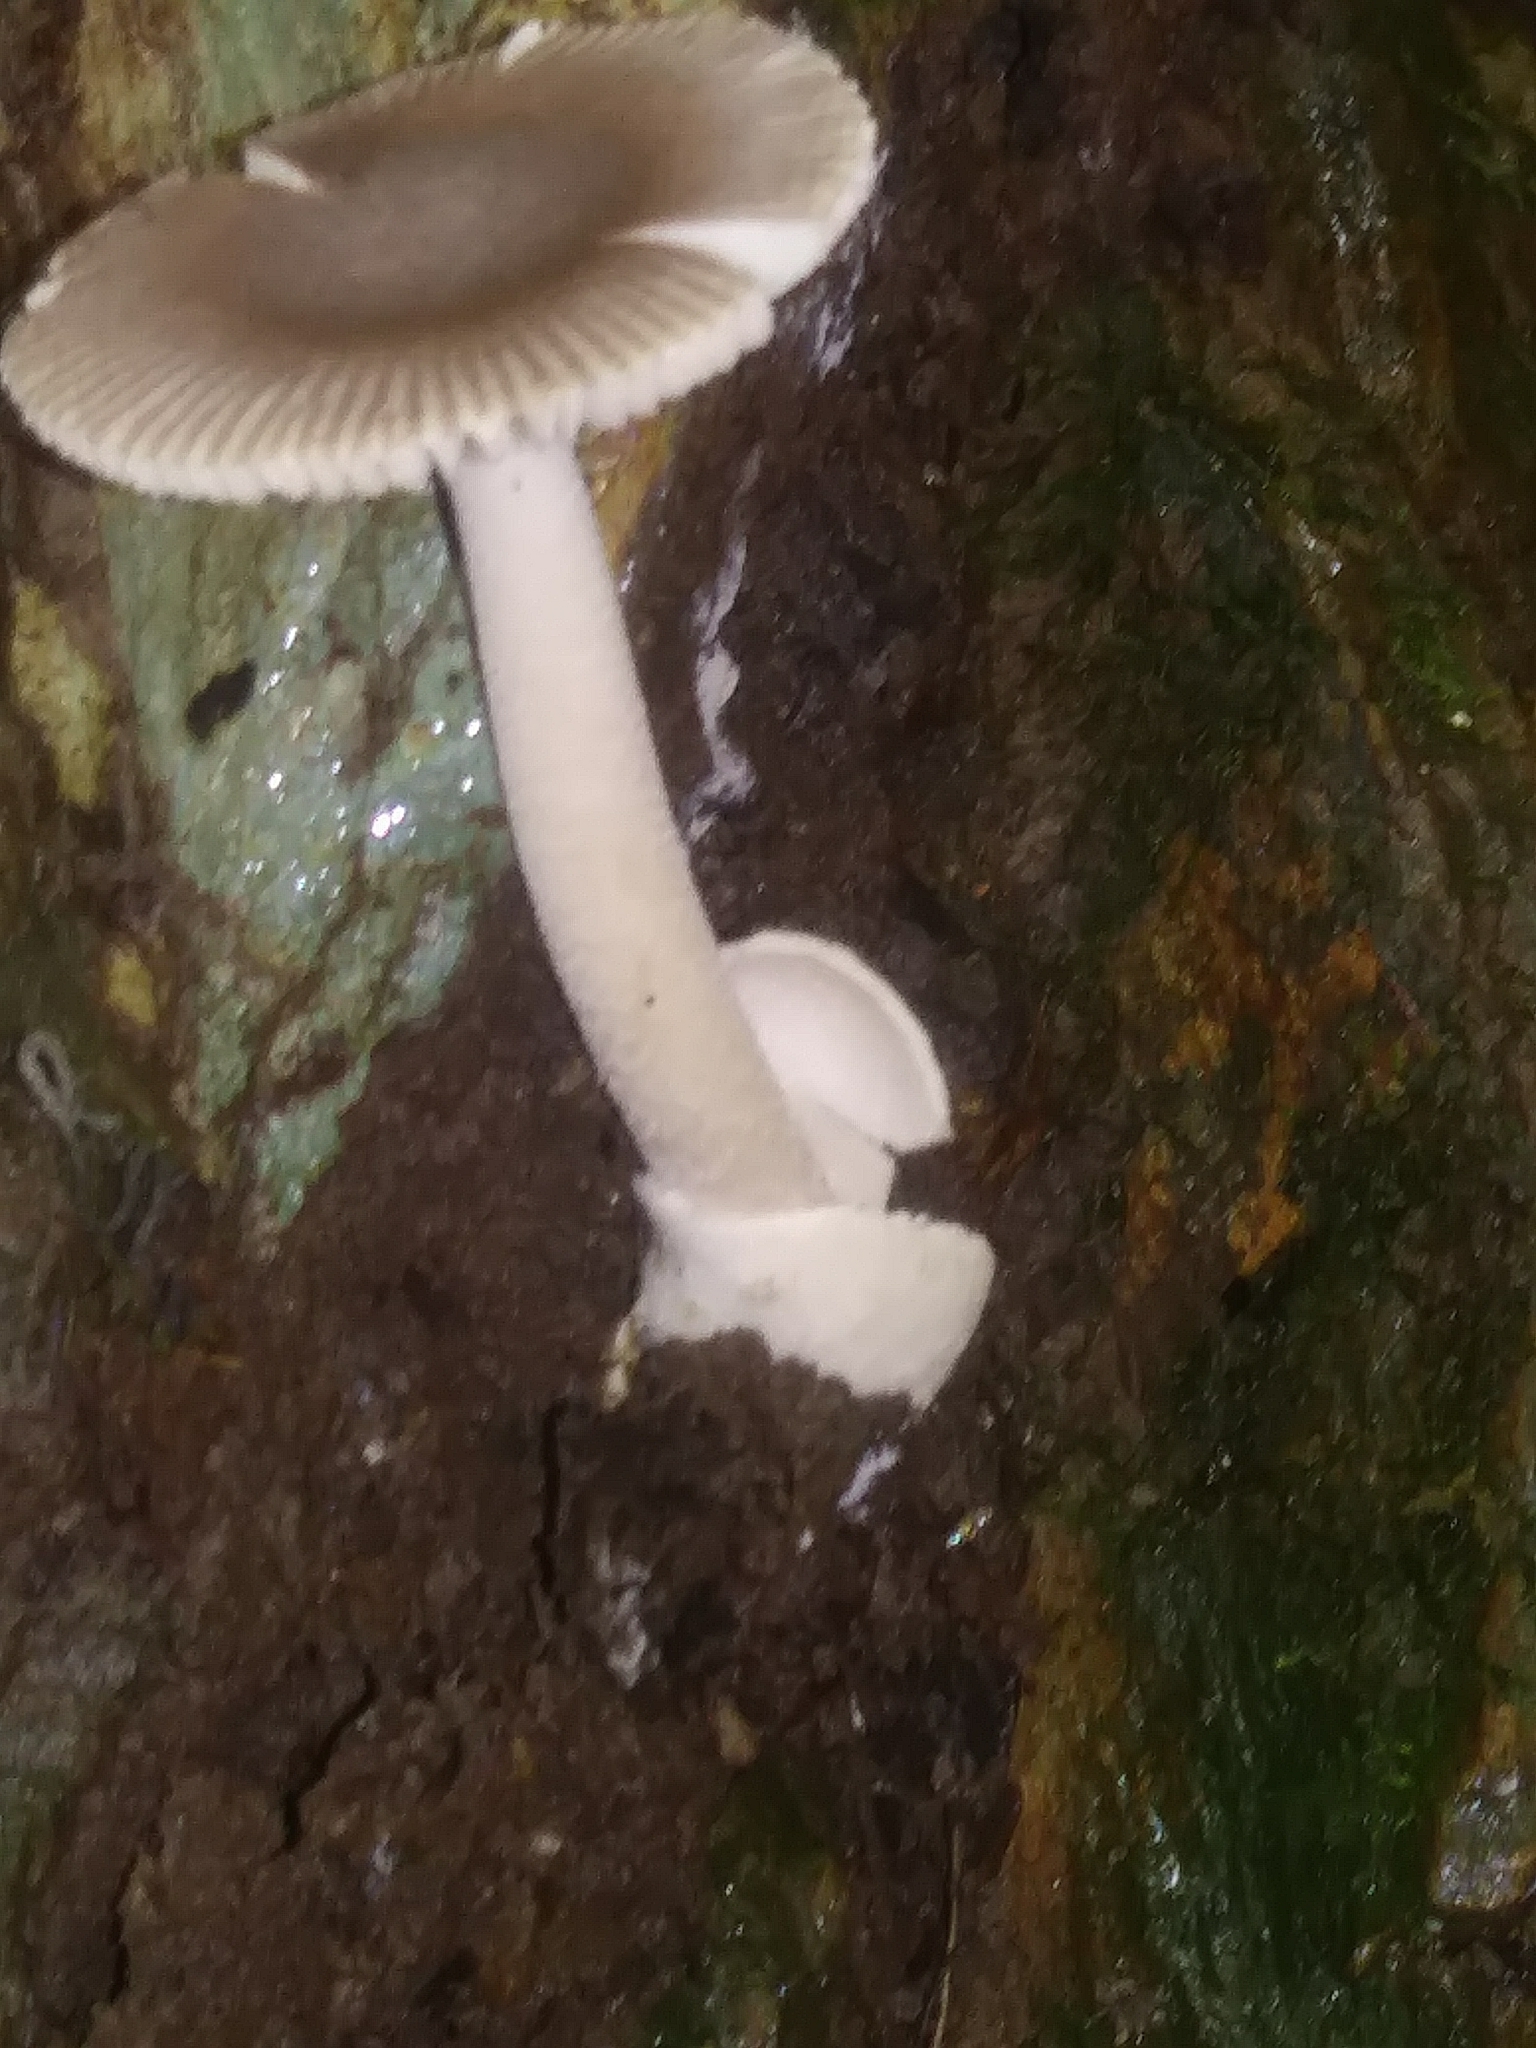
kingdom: Fungi
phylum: Basidiomycota
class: Agaricomycetes
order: Agaricales
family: Amanitaceae
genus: Amanita
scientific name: Amanita vaginata
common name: Grisette
